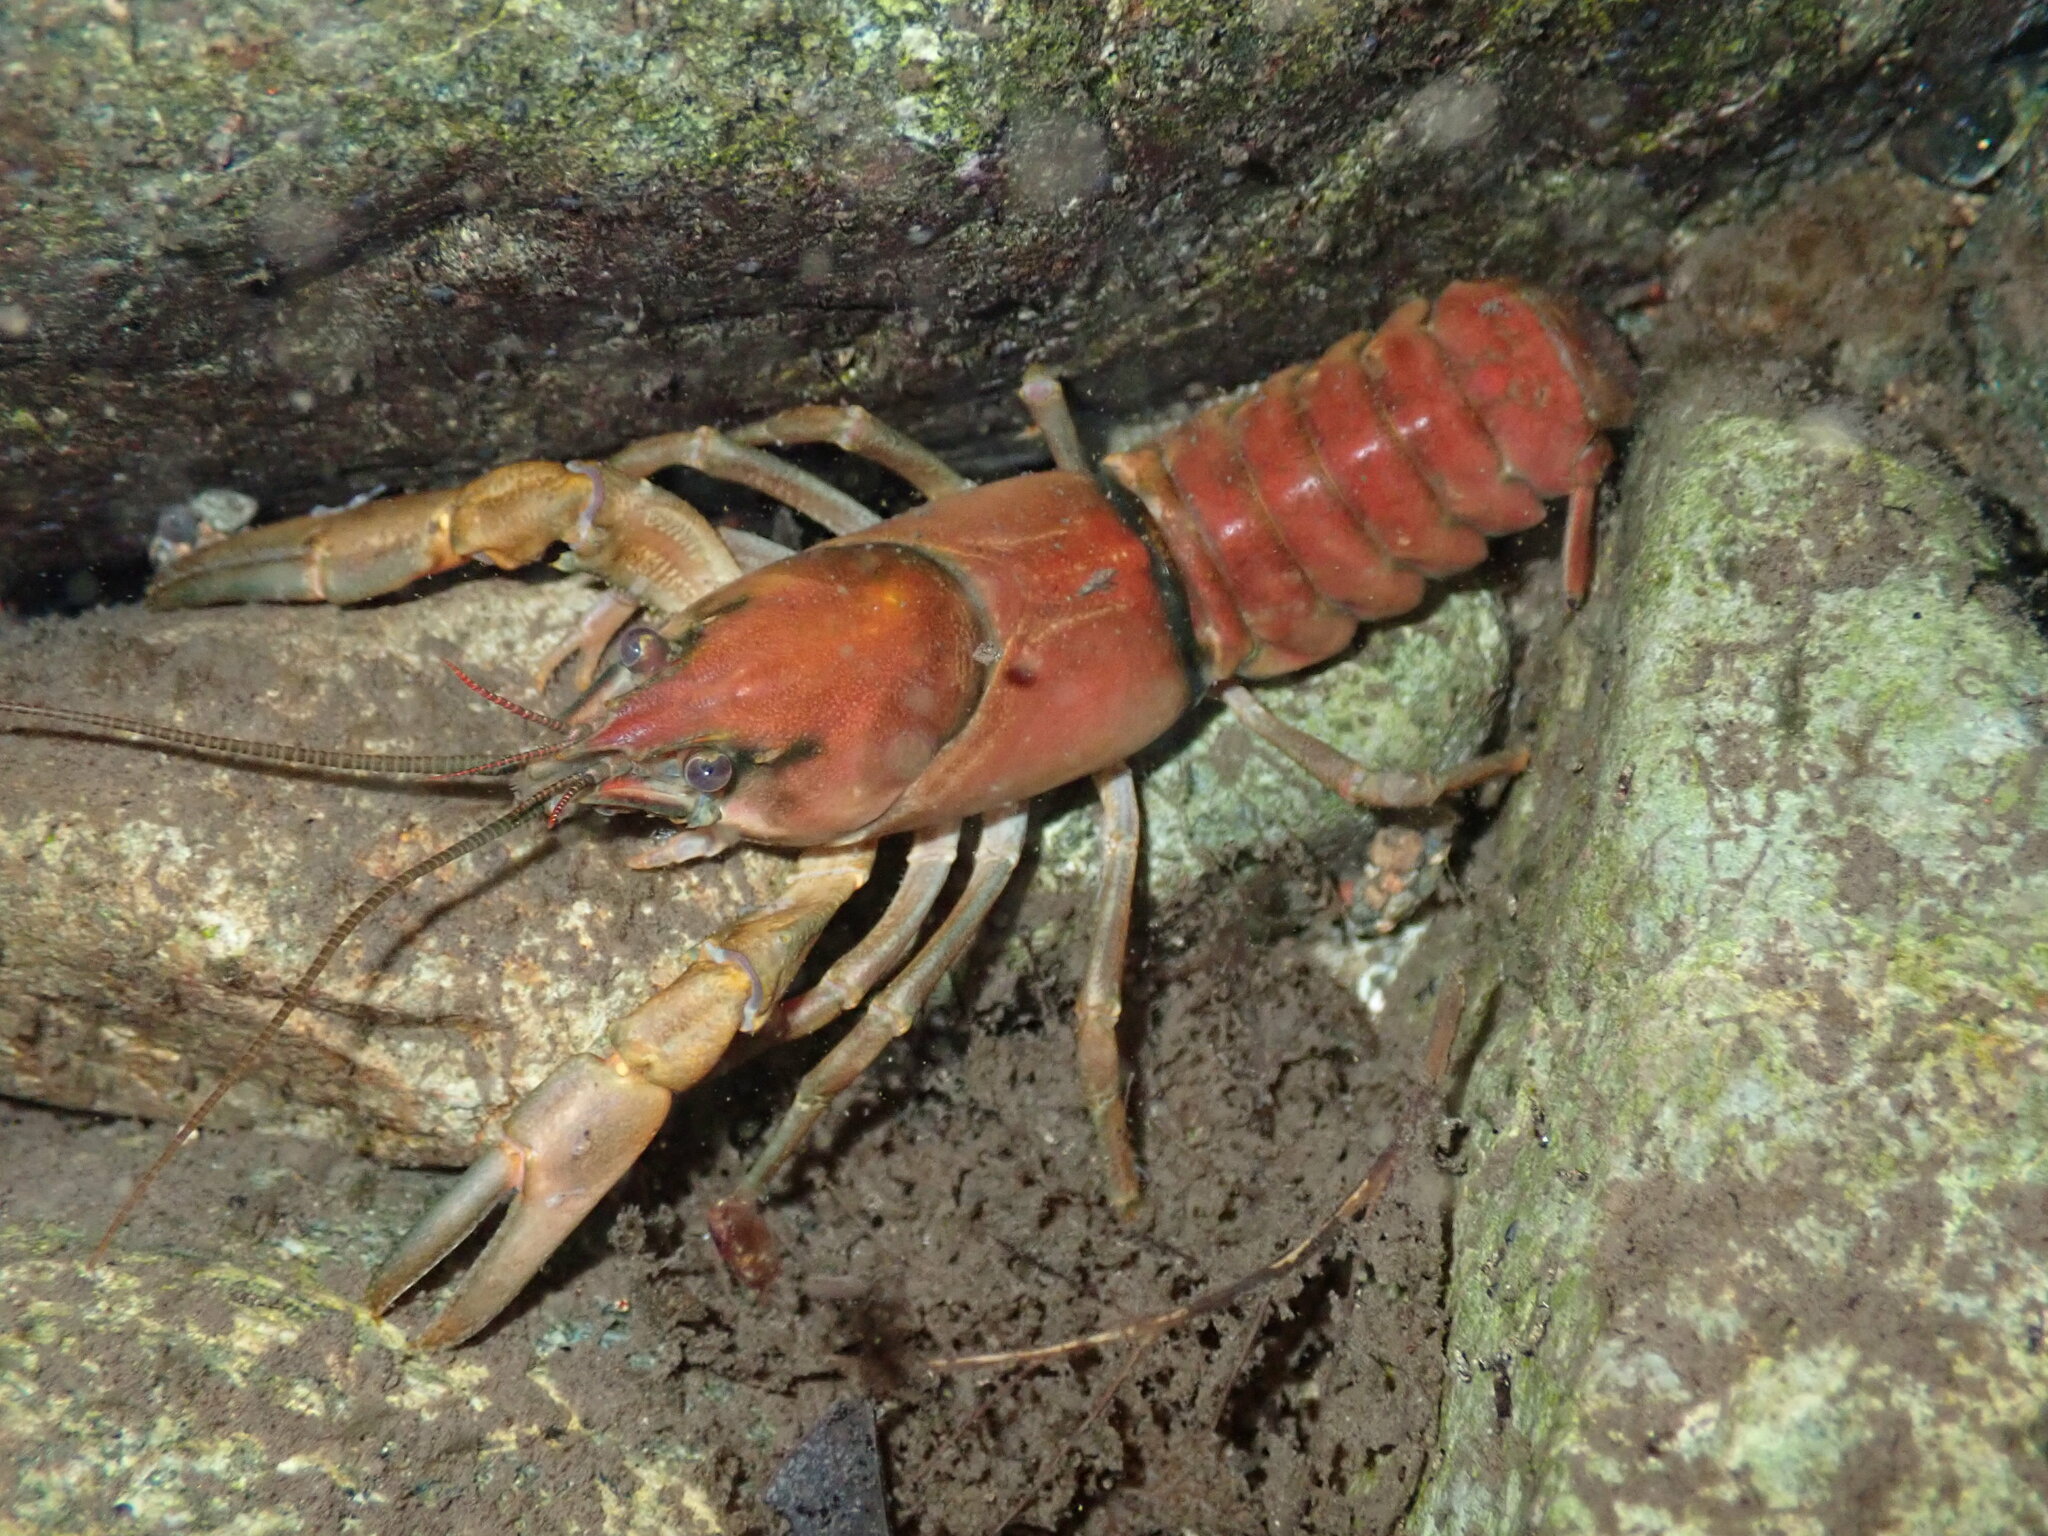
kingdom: Animalia
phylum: Arthropoda
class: Malacostraca
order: Decapoda
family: Astacidae
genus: Pacifastacus
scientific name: Pacifastacus leniusculus
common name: Signal crayfish
